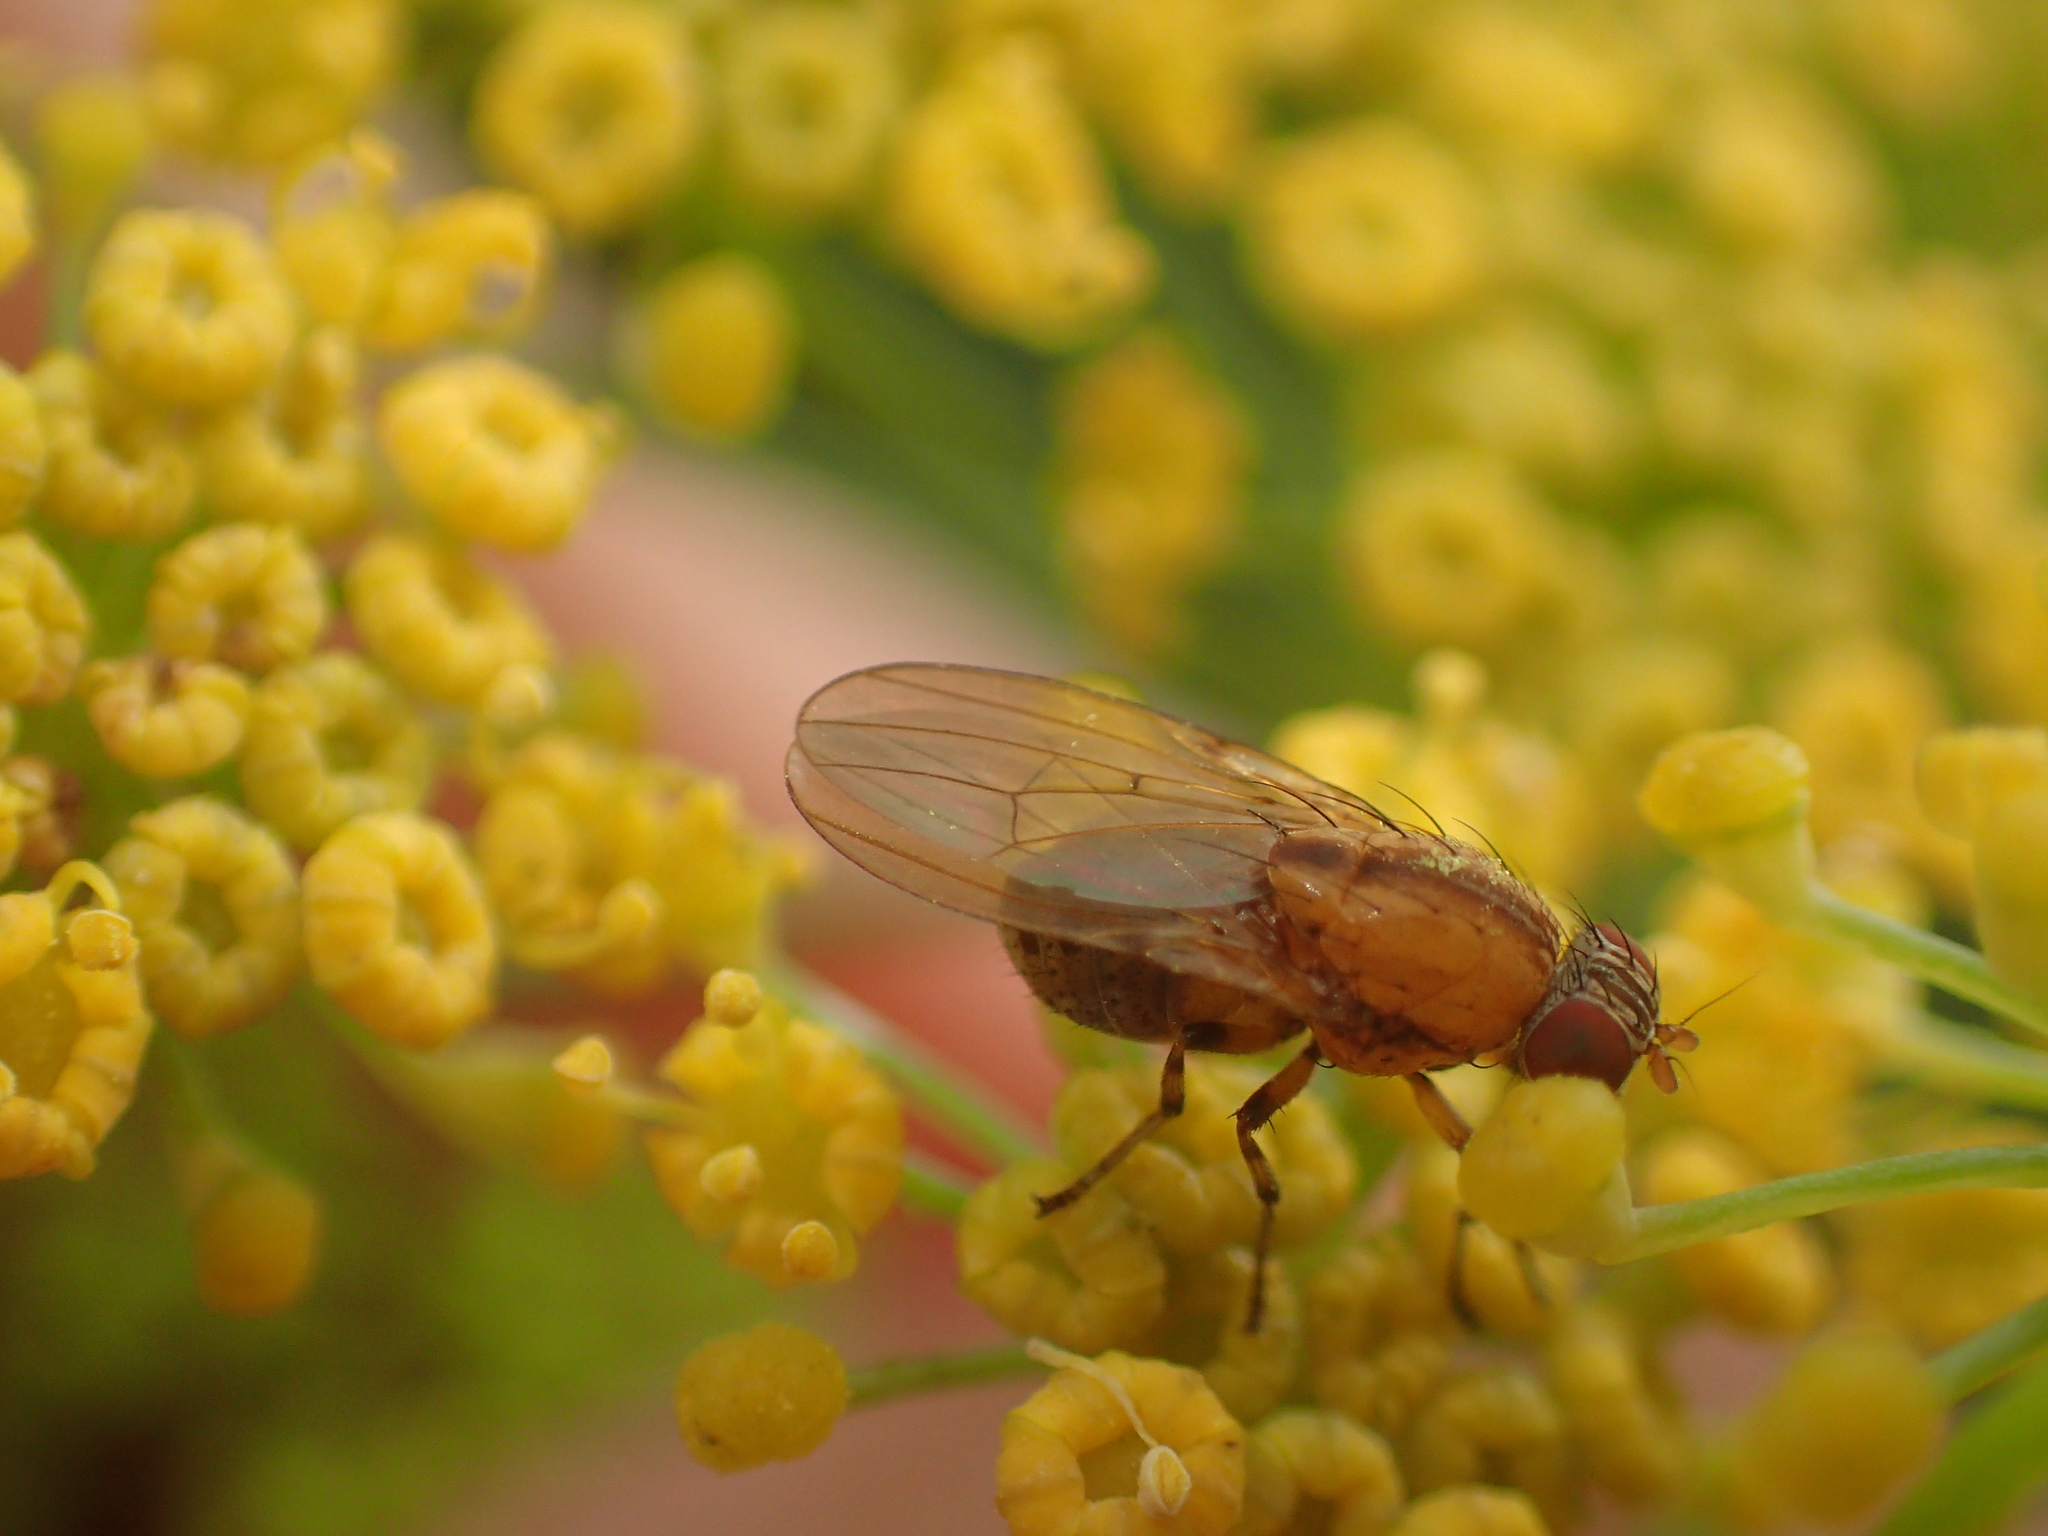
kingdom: Animalia
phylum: Arthropoda
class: Insecta
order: Diptera
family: Lauxaniidae
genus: Sapromyza
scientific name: Sapromyza neozelandica
